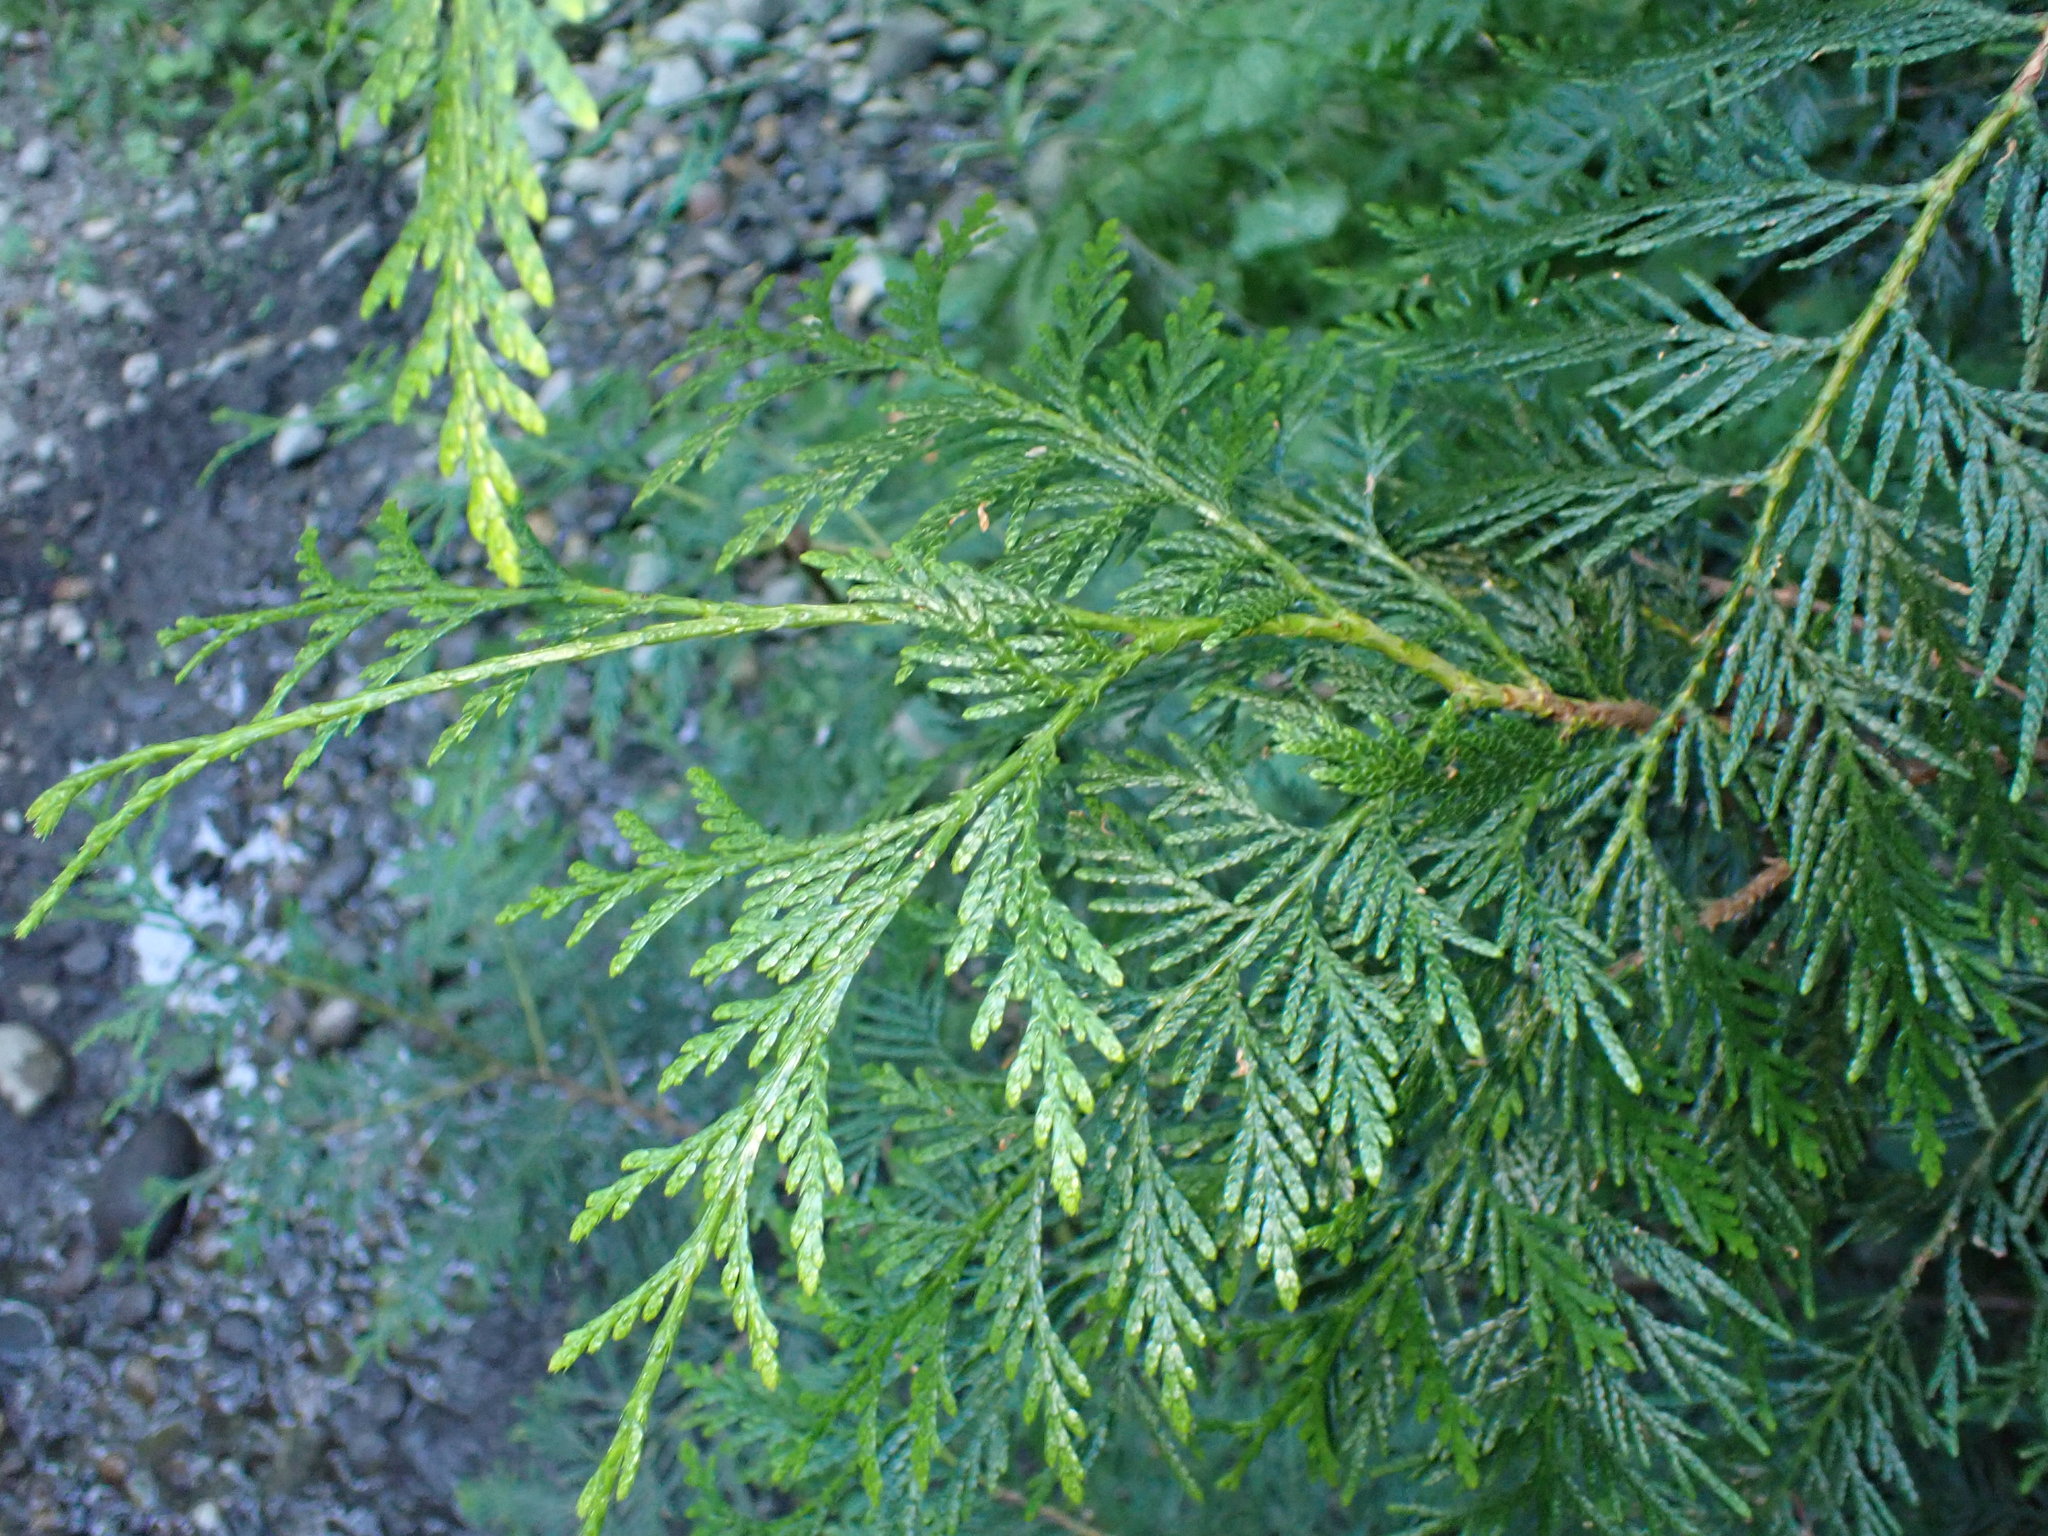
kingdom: Plantae
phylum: Tracheophyta
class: Pinopsida
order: Pinales
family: Cupressaceae
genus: Thuja
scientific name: Thuja plicata
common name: Western red-cedar
